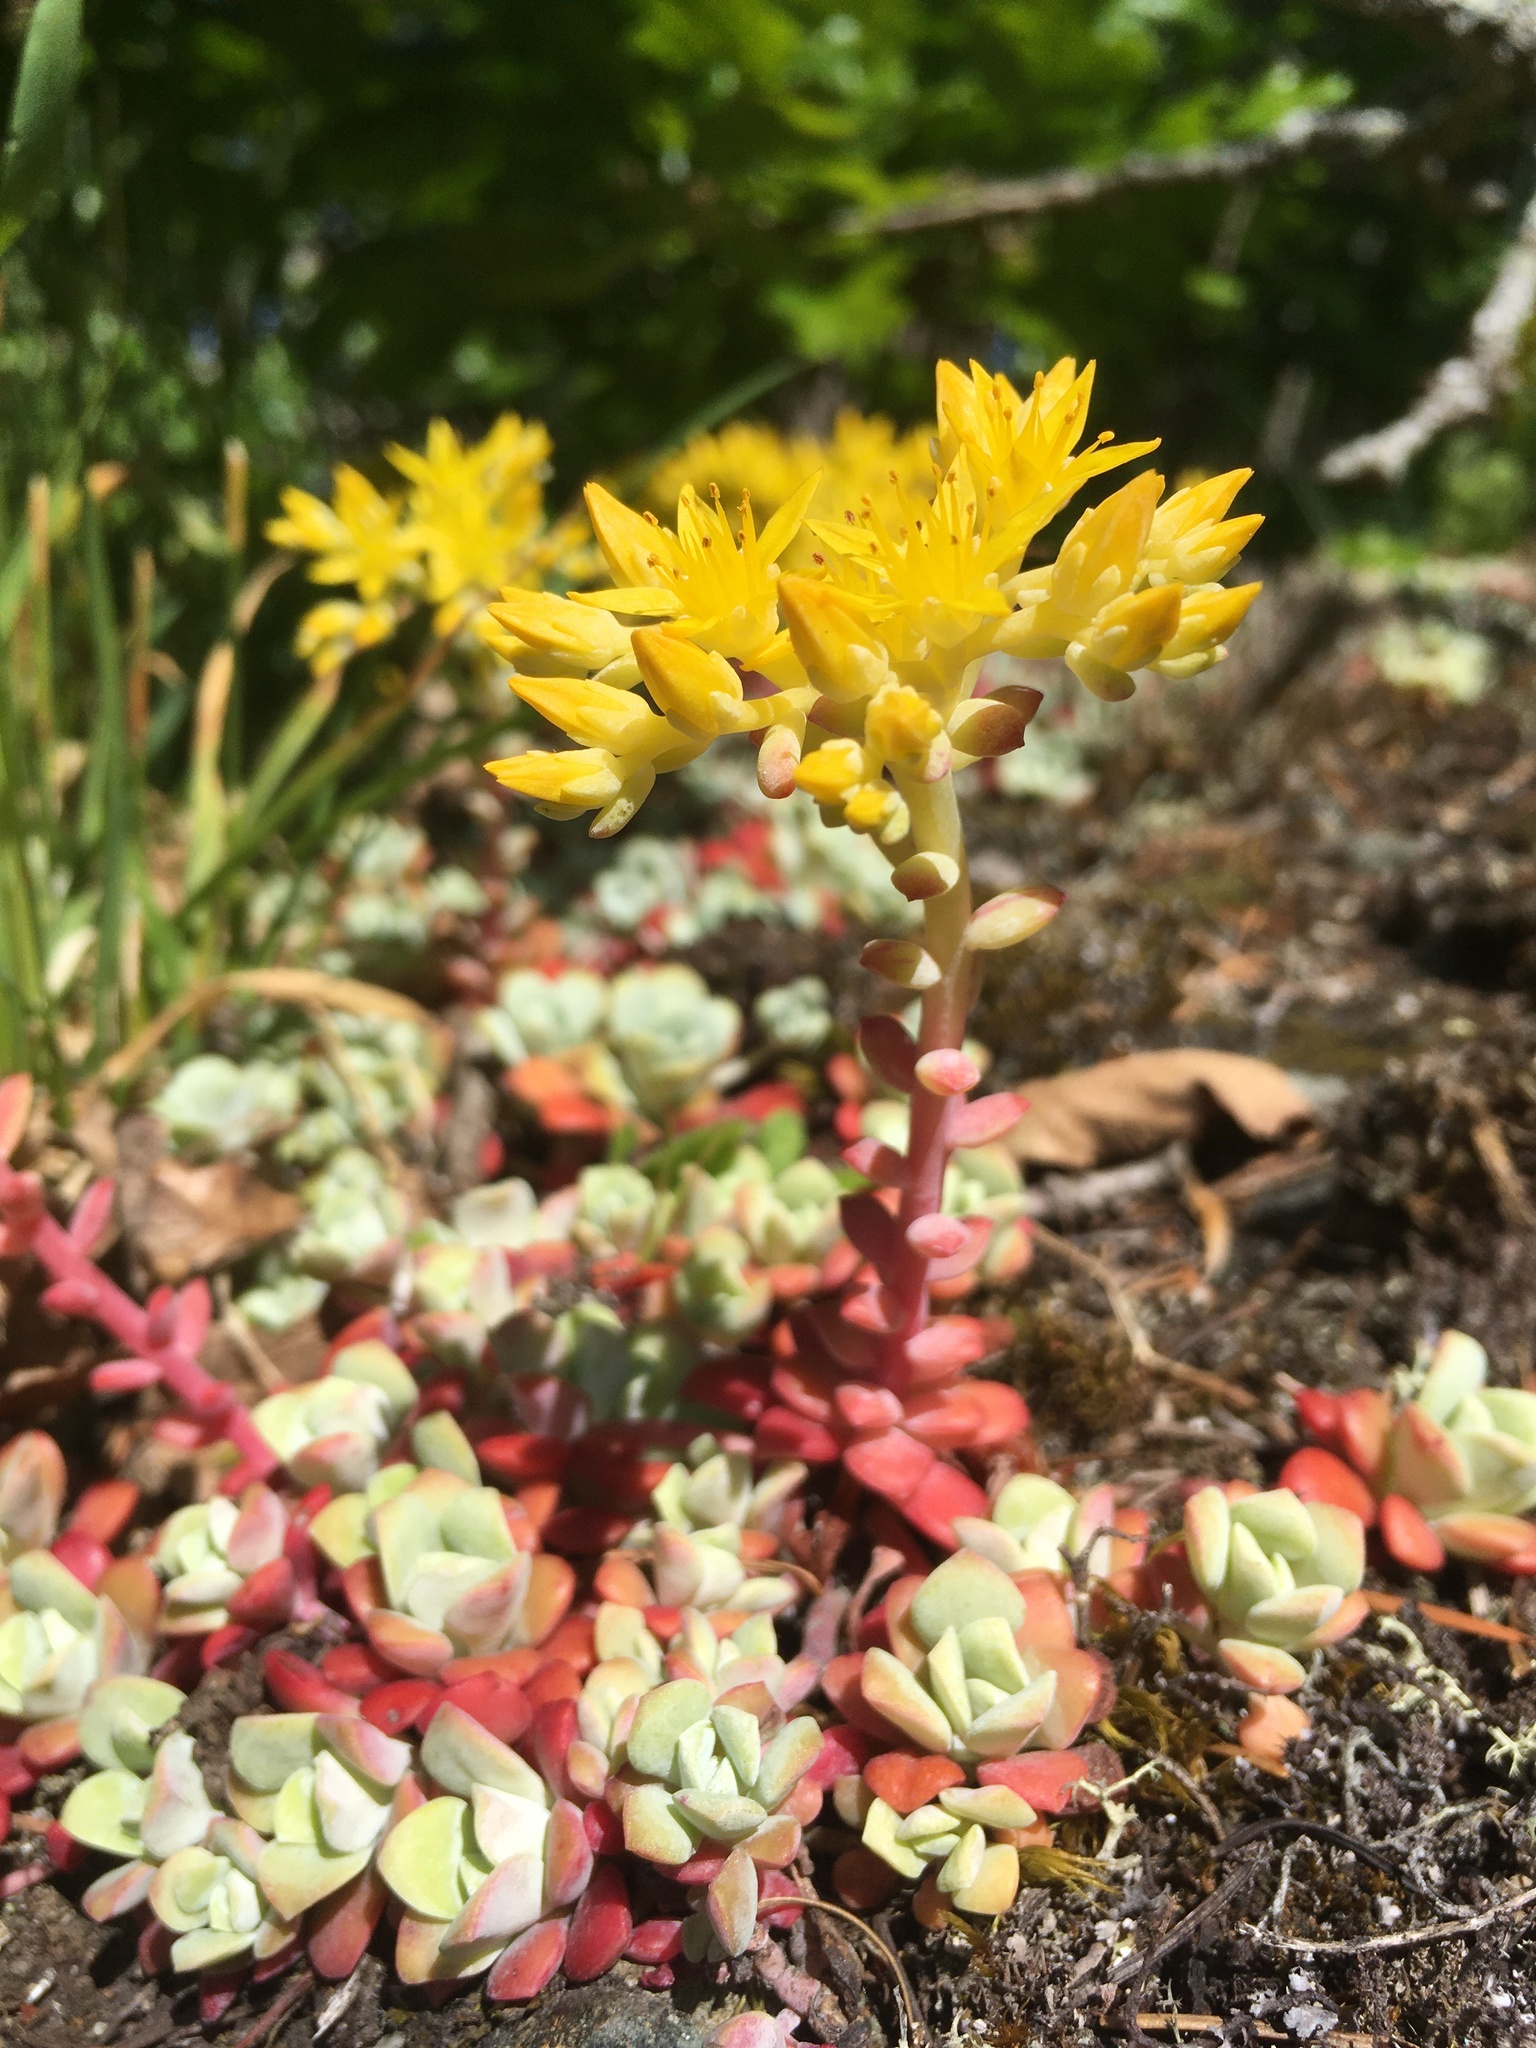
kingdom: Plantae
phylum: Tracheophyta
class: Magnoliopsida
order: Saxifragales
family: Crassulaceae
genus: Sedum
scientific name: Sedum spathulifolium
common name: Colorado stonecrop
